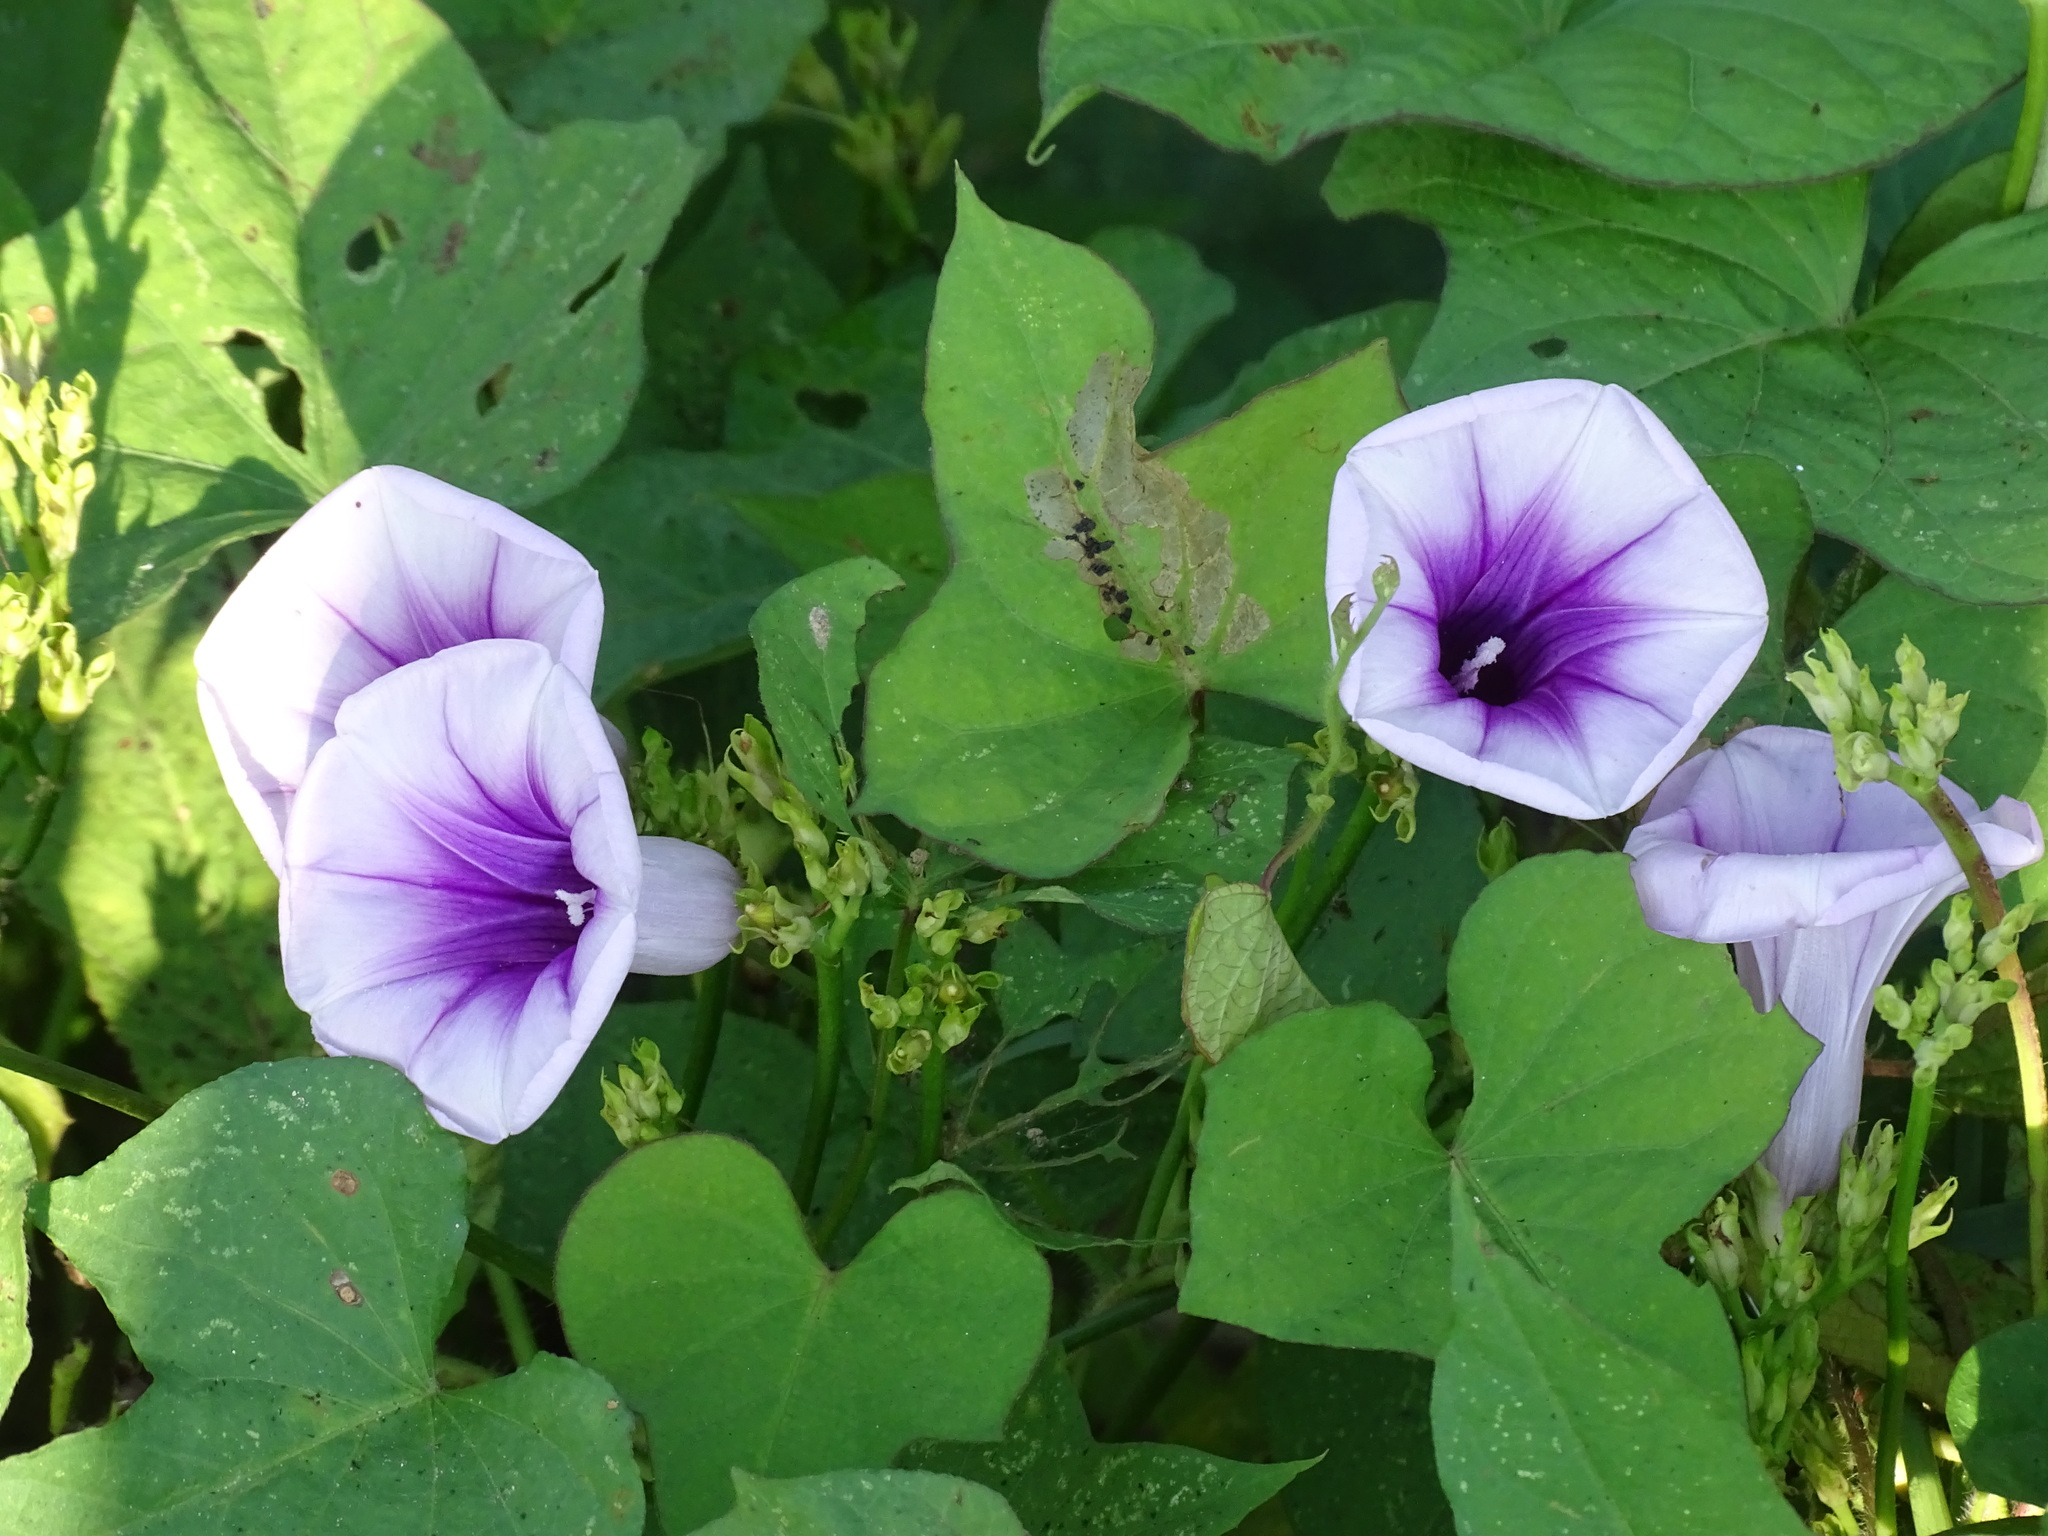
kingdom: Plantae
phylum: Tracheophyta
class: Magnoliopsida
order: Solanales
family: Convolvulaceae
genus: Ipomoea
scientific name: Ipomoea batatas
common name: Sweet-potato
